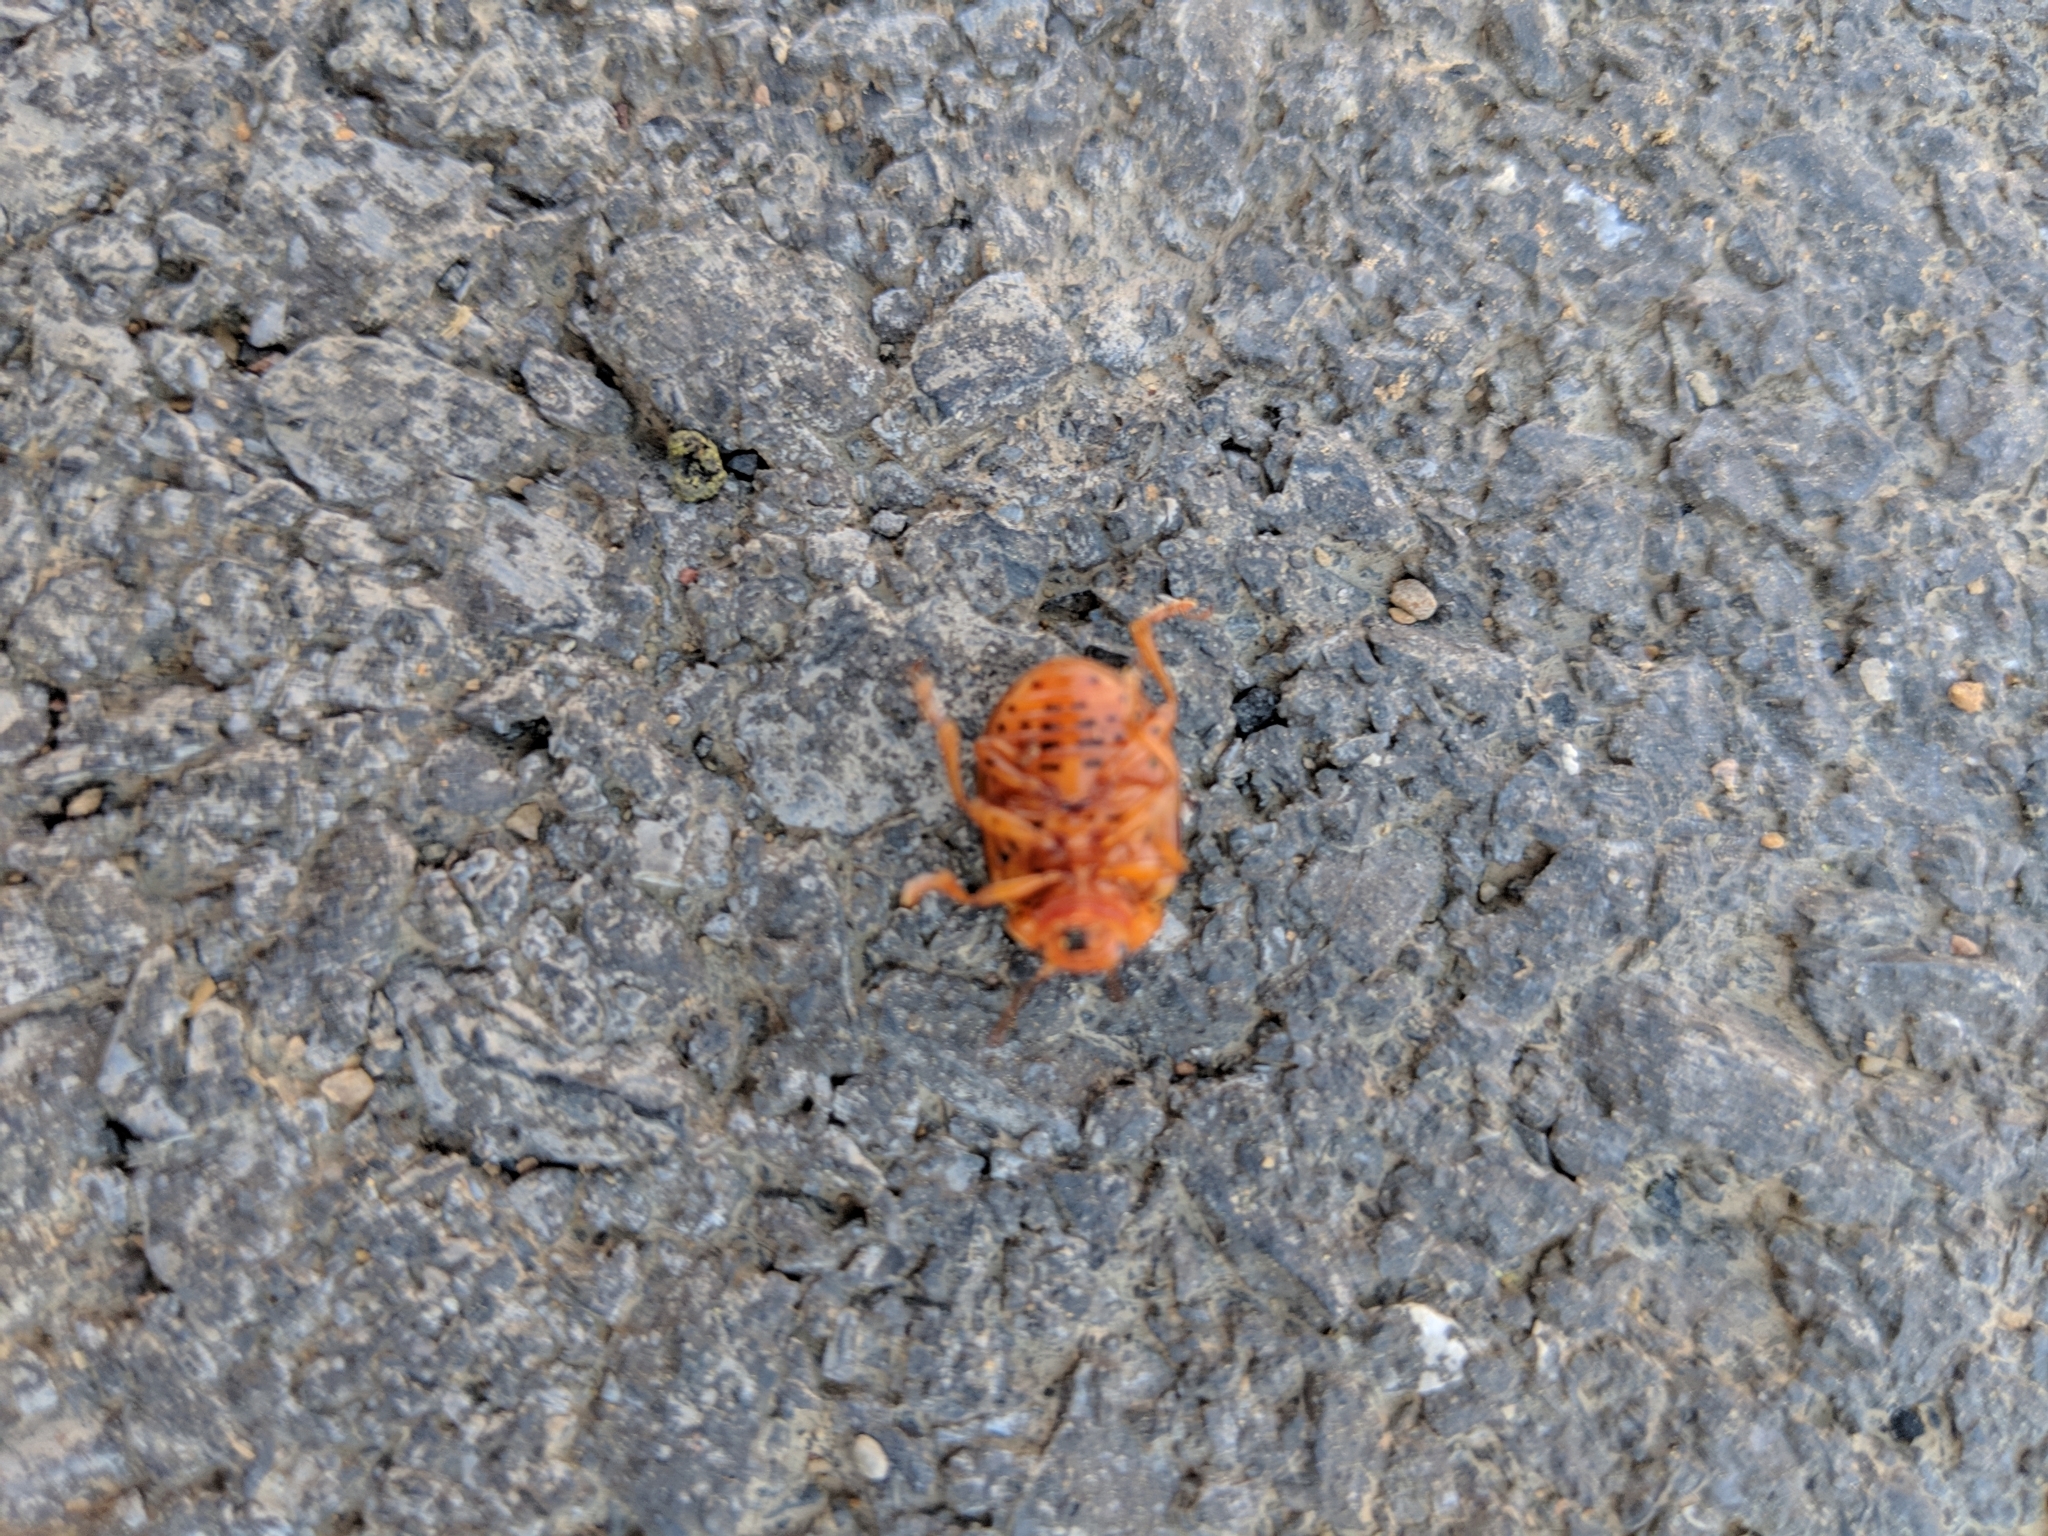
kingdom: Animalia
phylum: Arthropoda
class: Insecta
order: Coleoptera
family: Chrysomelidae
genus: Leptinotarsa
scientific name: Leptinotarsa juncta
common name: False potato beetle
